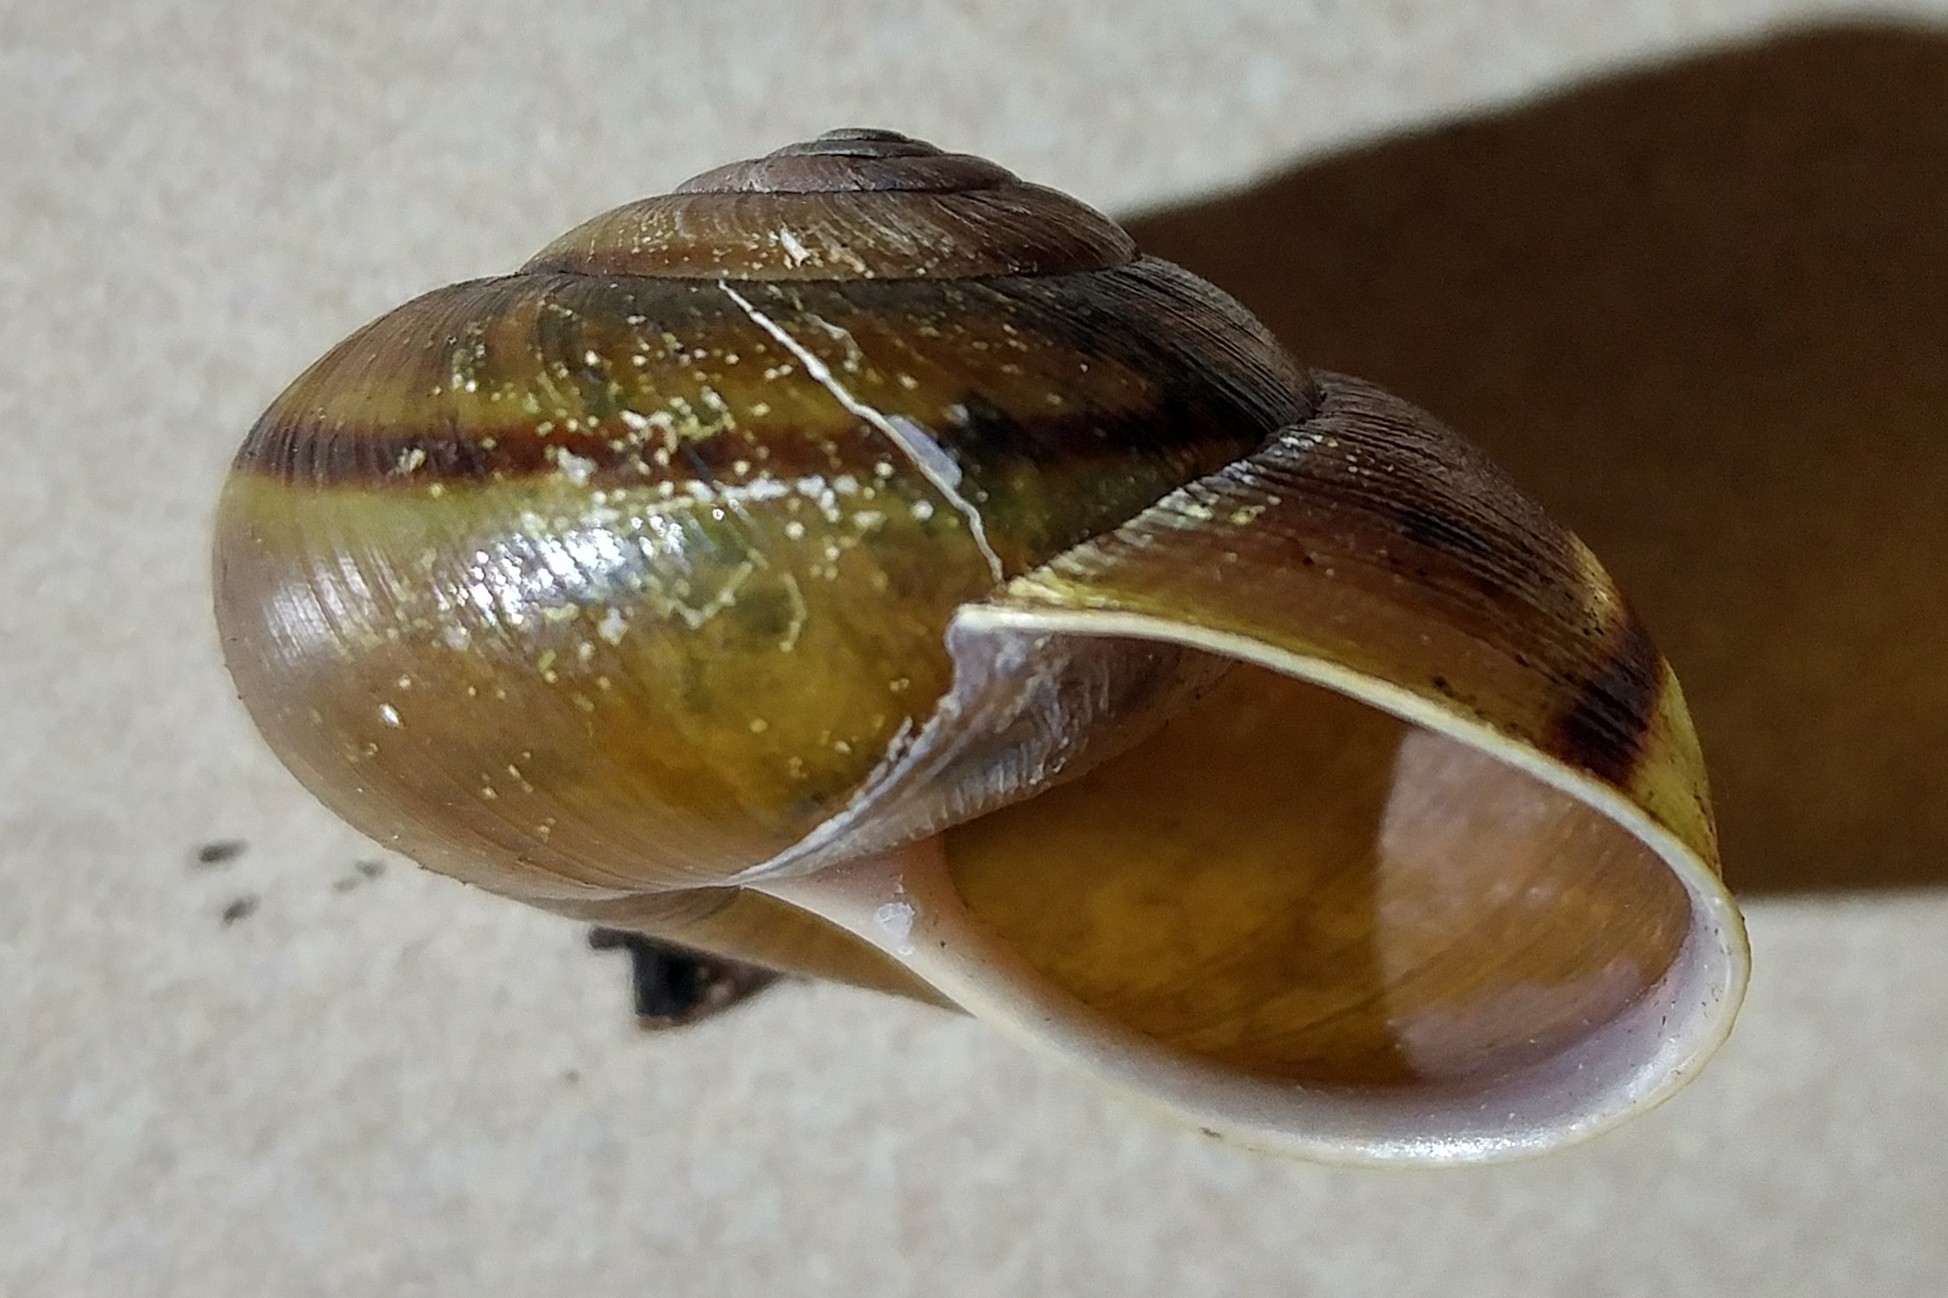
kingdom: Animalia
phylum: Mollusca
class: Gastropoda
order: Stylommatophora
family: Xanthonychidae
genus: Helminthoglypta
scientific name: Helminthoglypta phlyctaena
